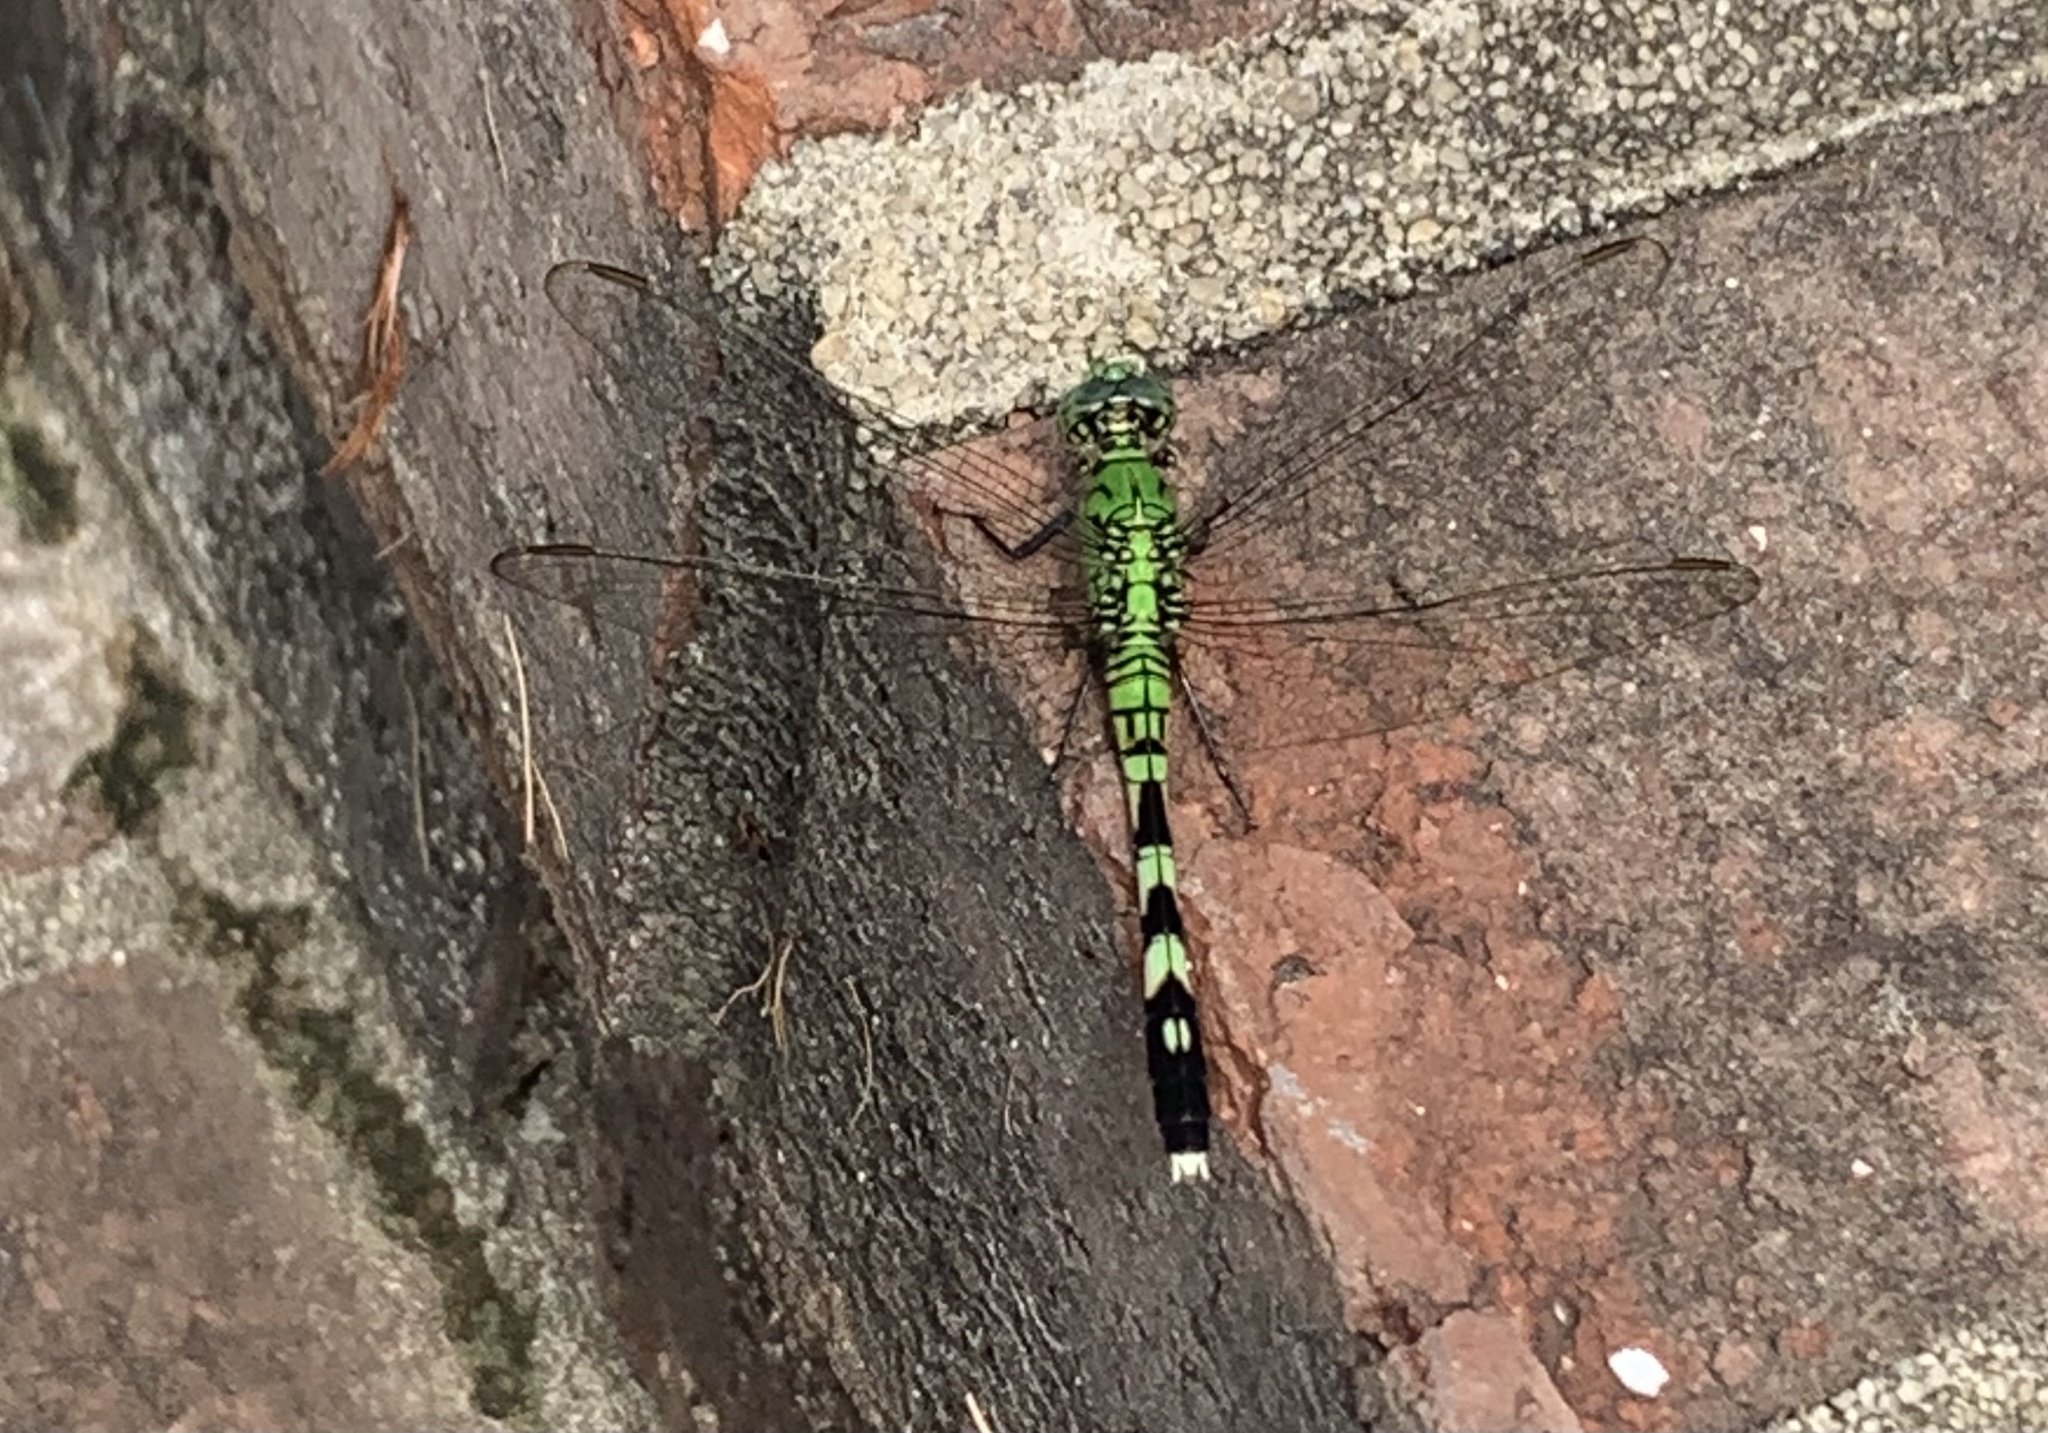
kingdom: Animalia
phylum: Arthropoda
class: Insecta
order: Odonata
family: Libellulidae
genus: Erythemis
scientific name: Erythemis simplicicollis
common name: Eastern pondhawk
